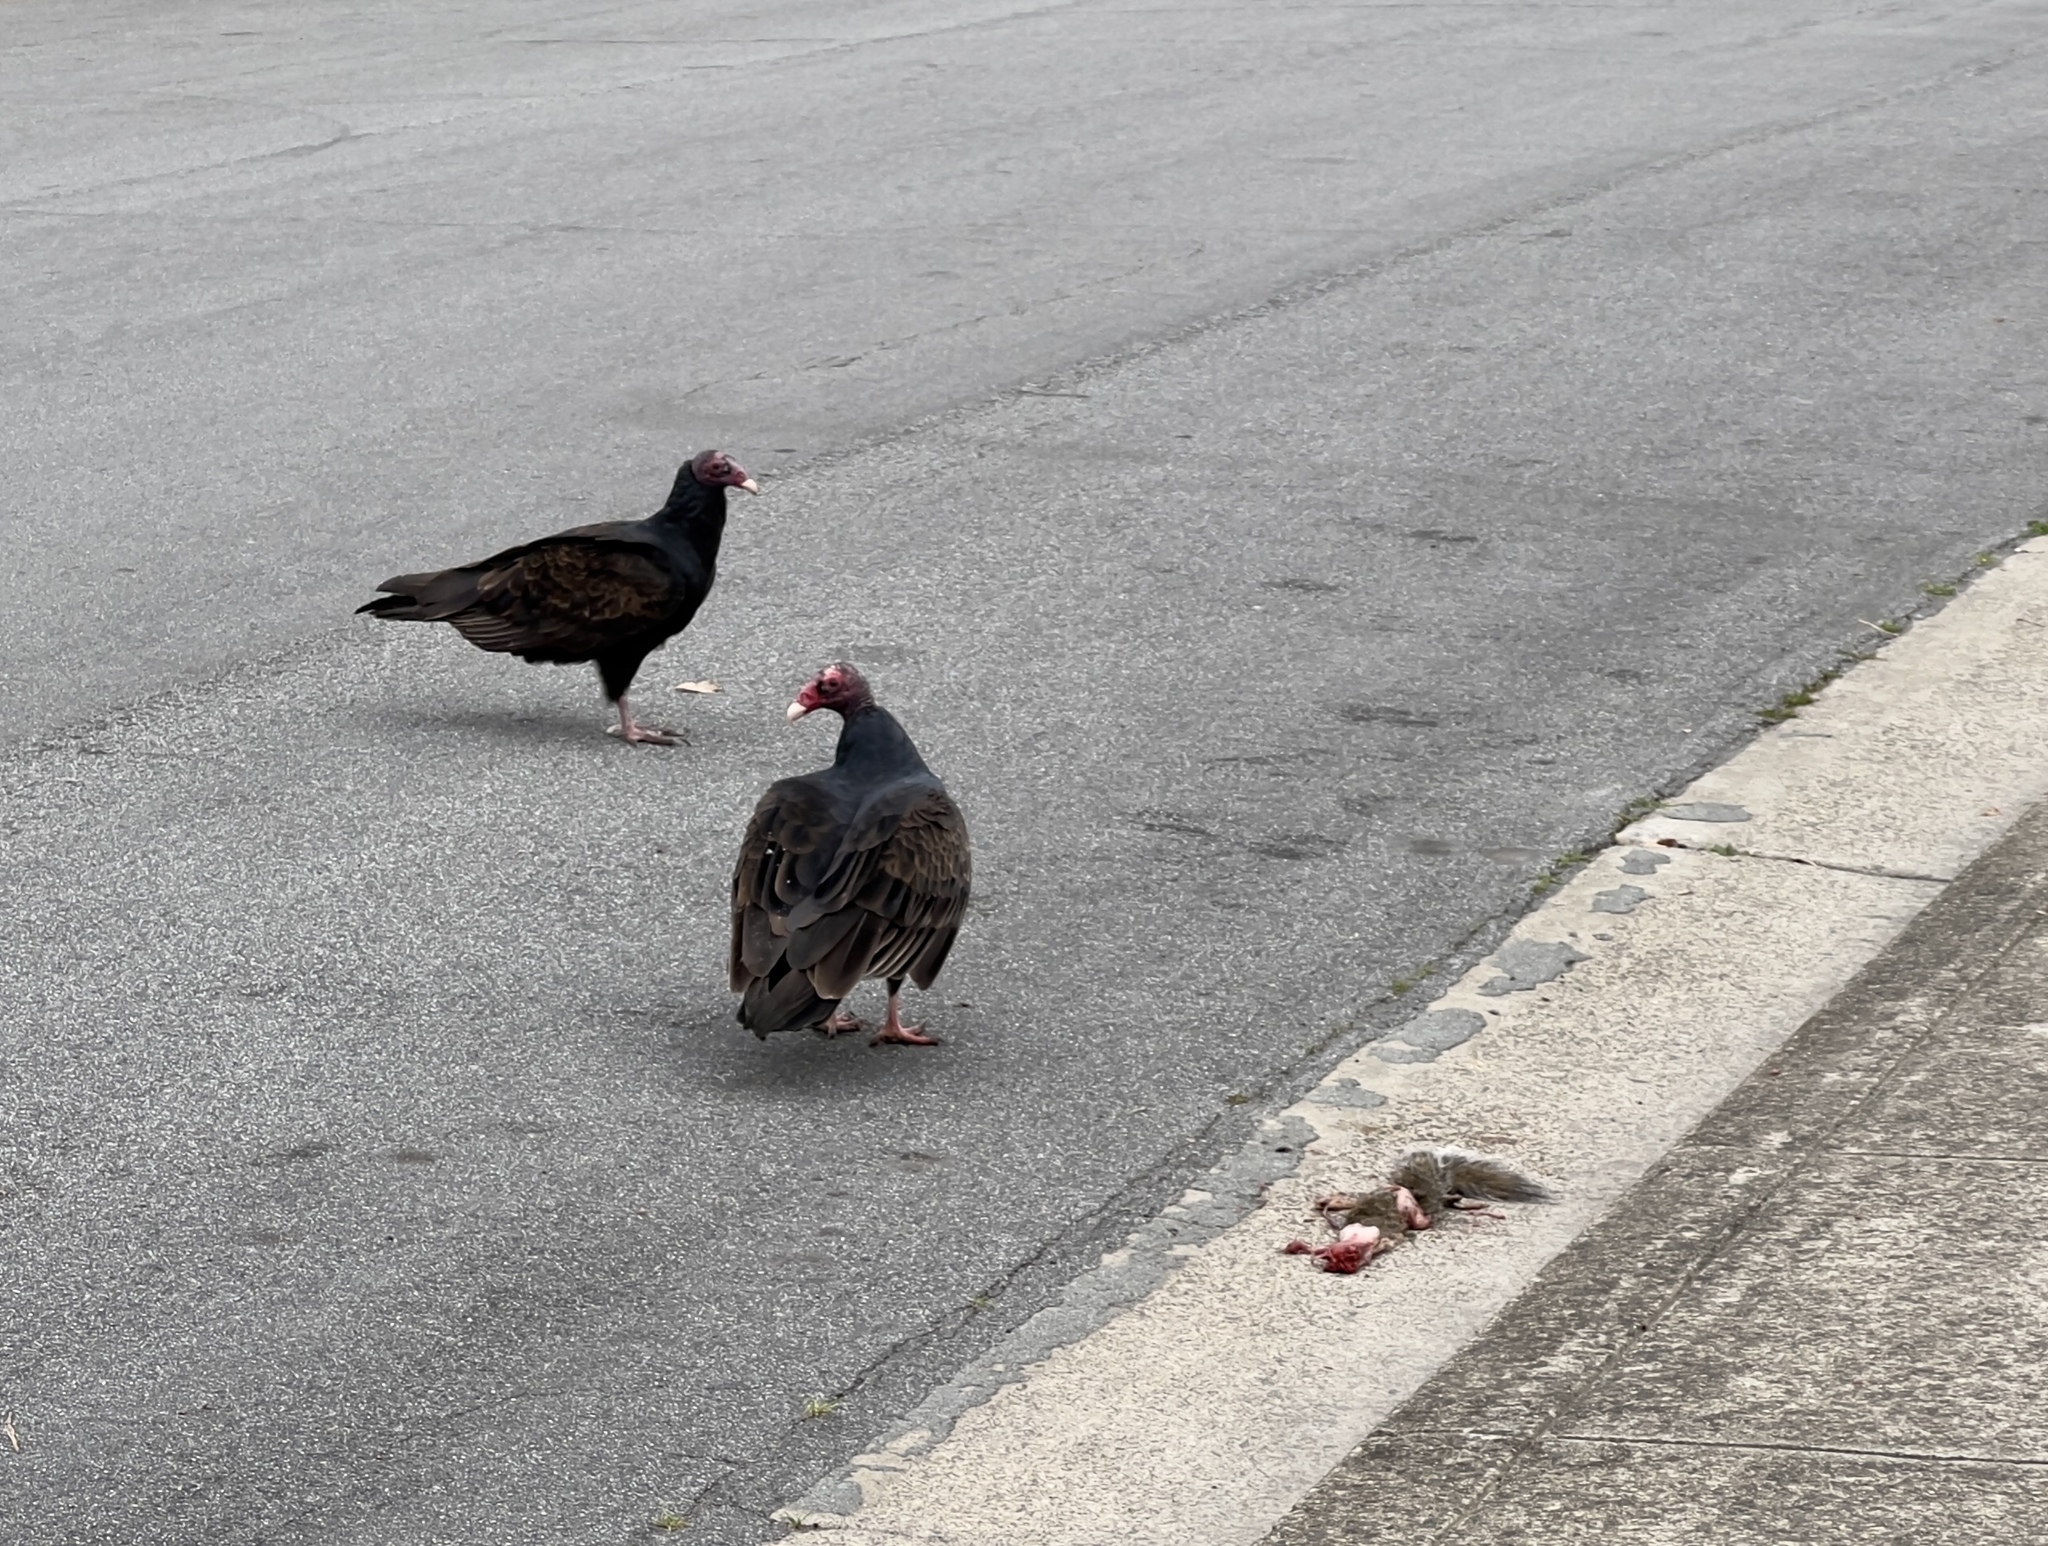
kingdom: Animalia
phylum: Chordata
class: Aves
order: Accipitriformes
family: Cathartidae
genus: Cathartes
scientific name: Cathartes aura
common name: Turkey vulture
